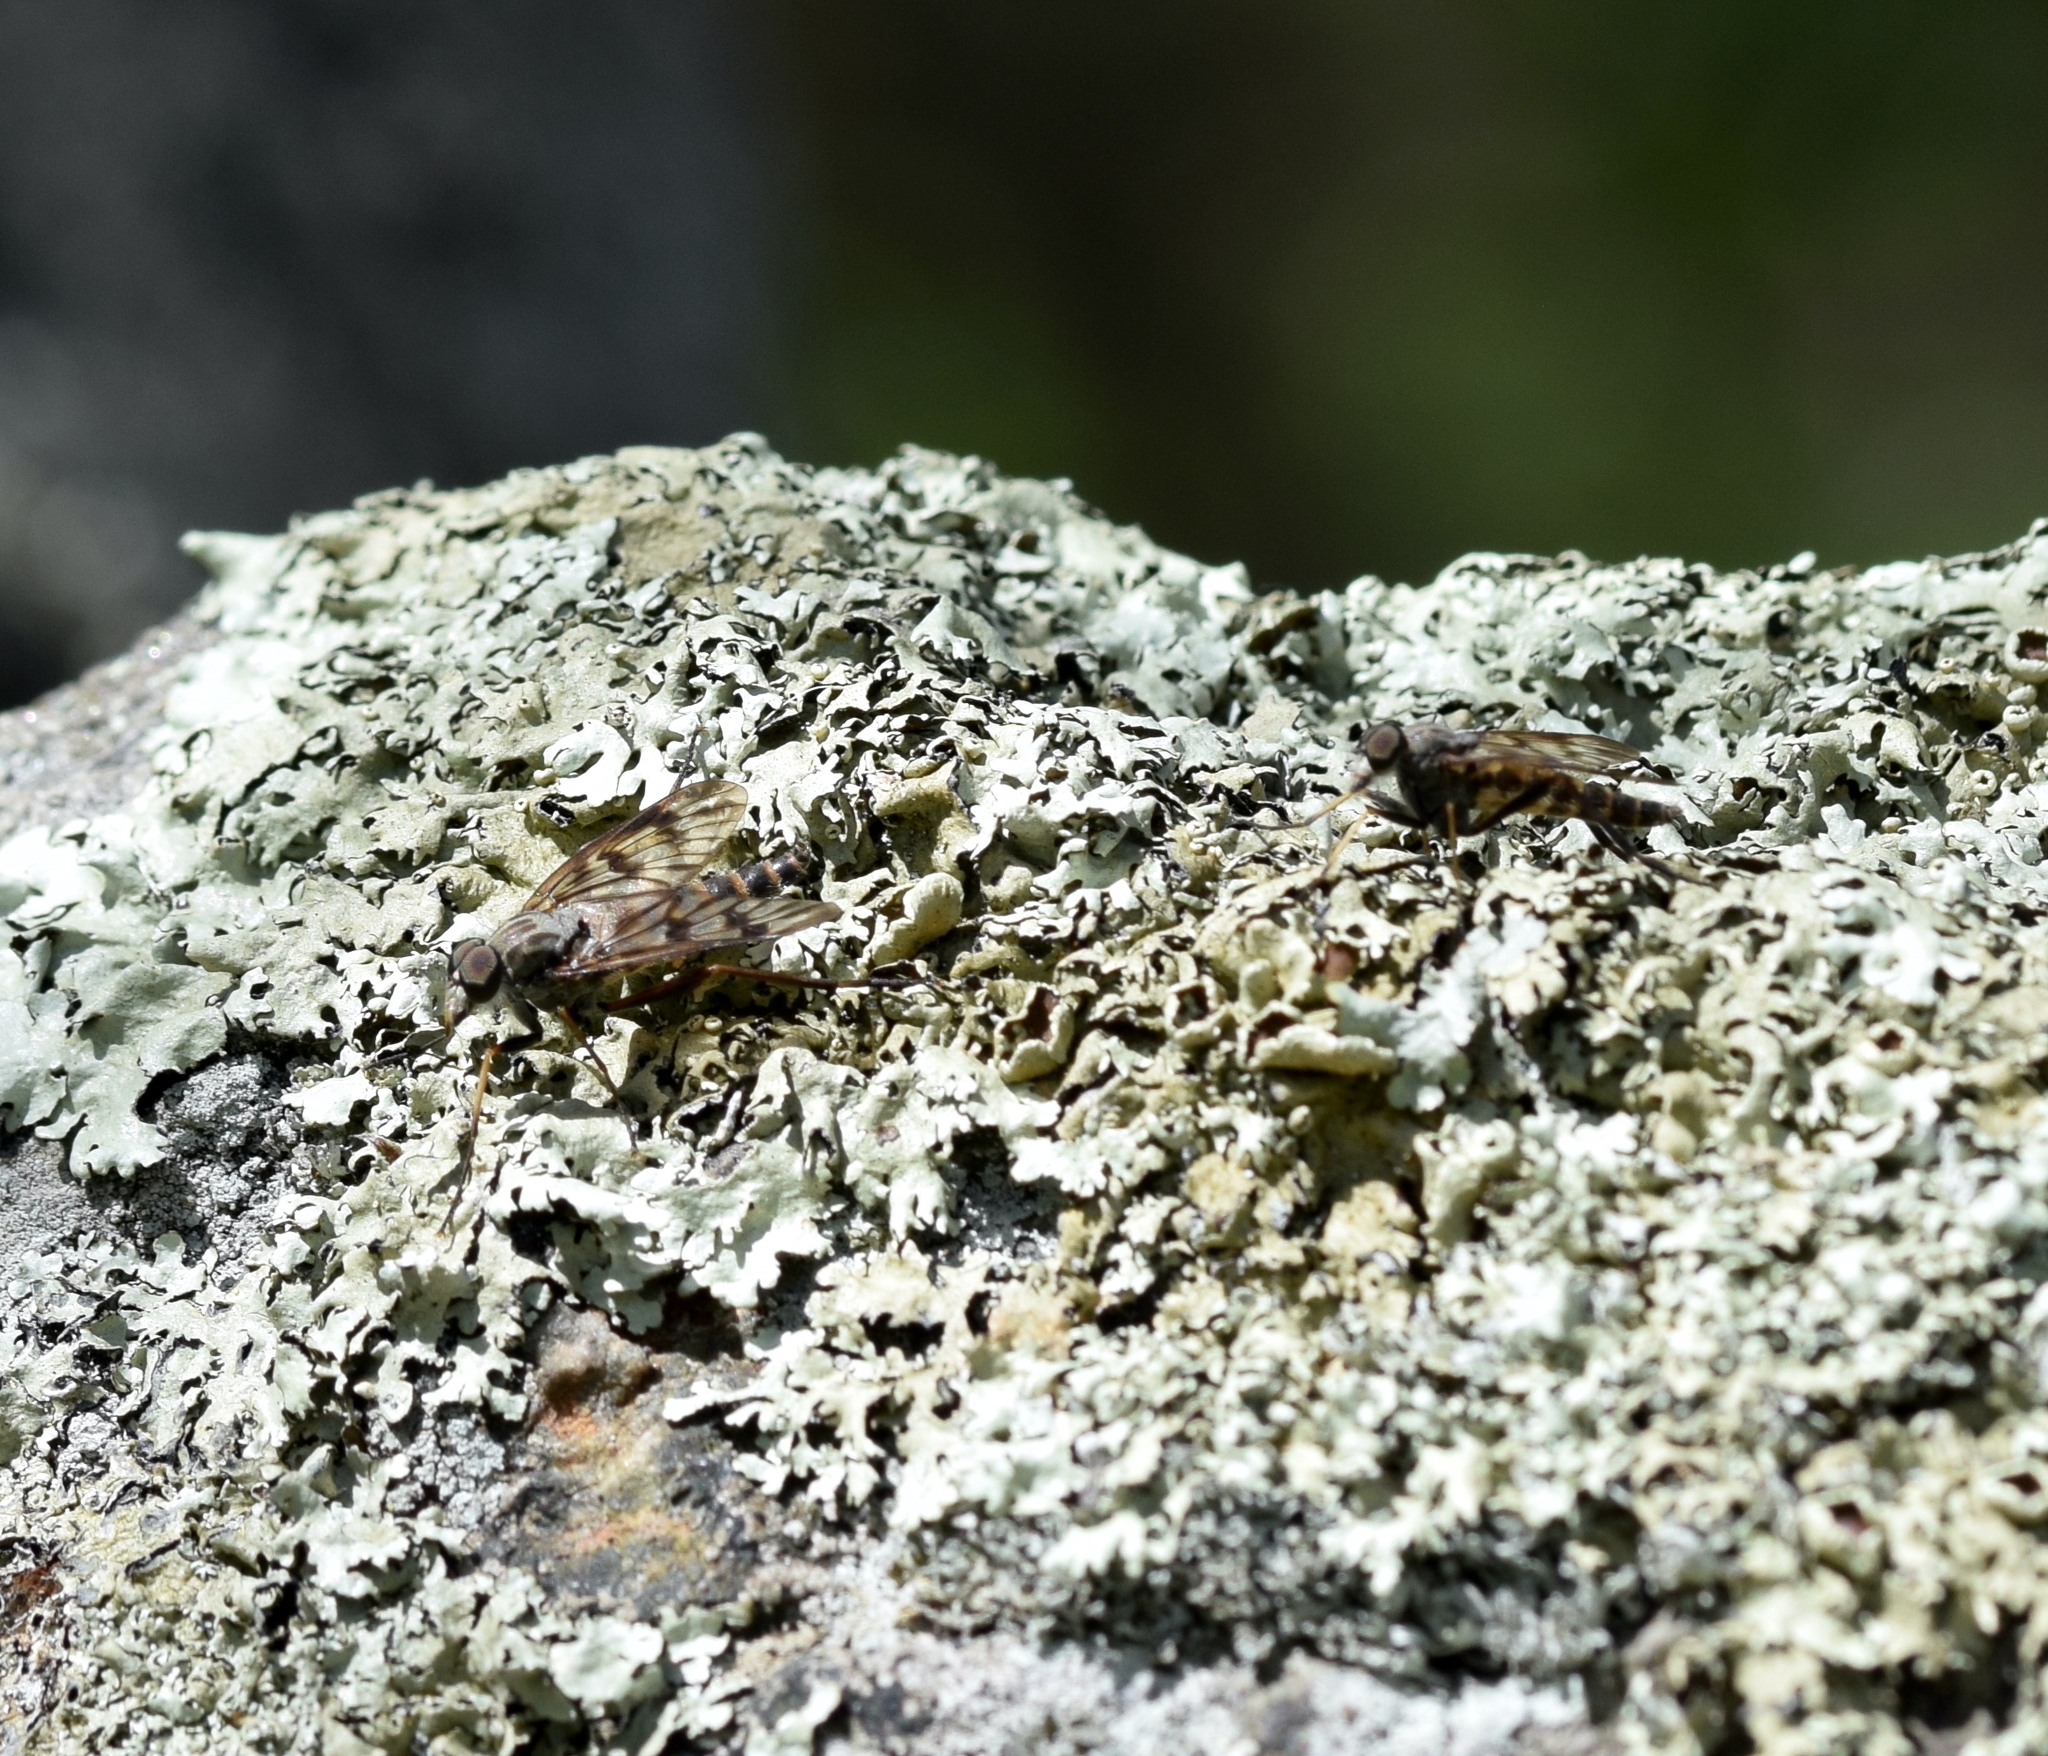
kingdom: Animalia
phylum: Arthropoda
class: Insecta
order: Diptera
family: Rhagionidae
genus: Rhagio
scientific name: Rhagio mystaceus
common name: Common snipe fly
